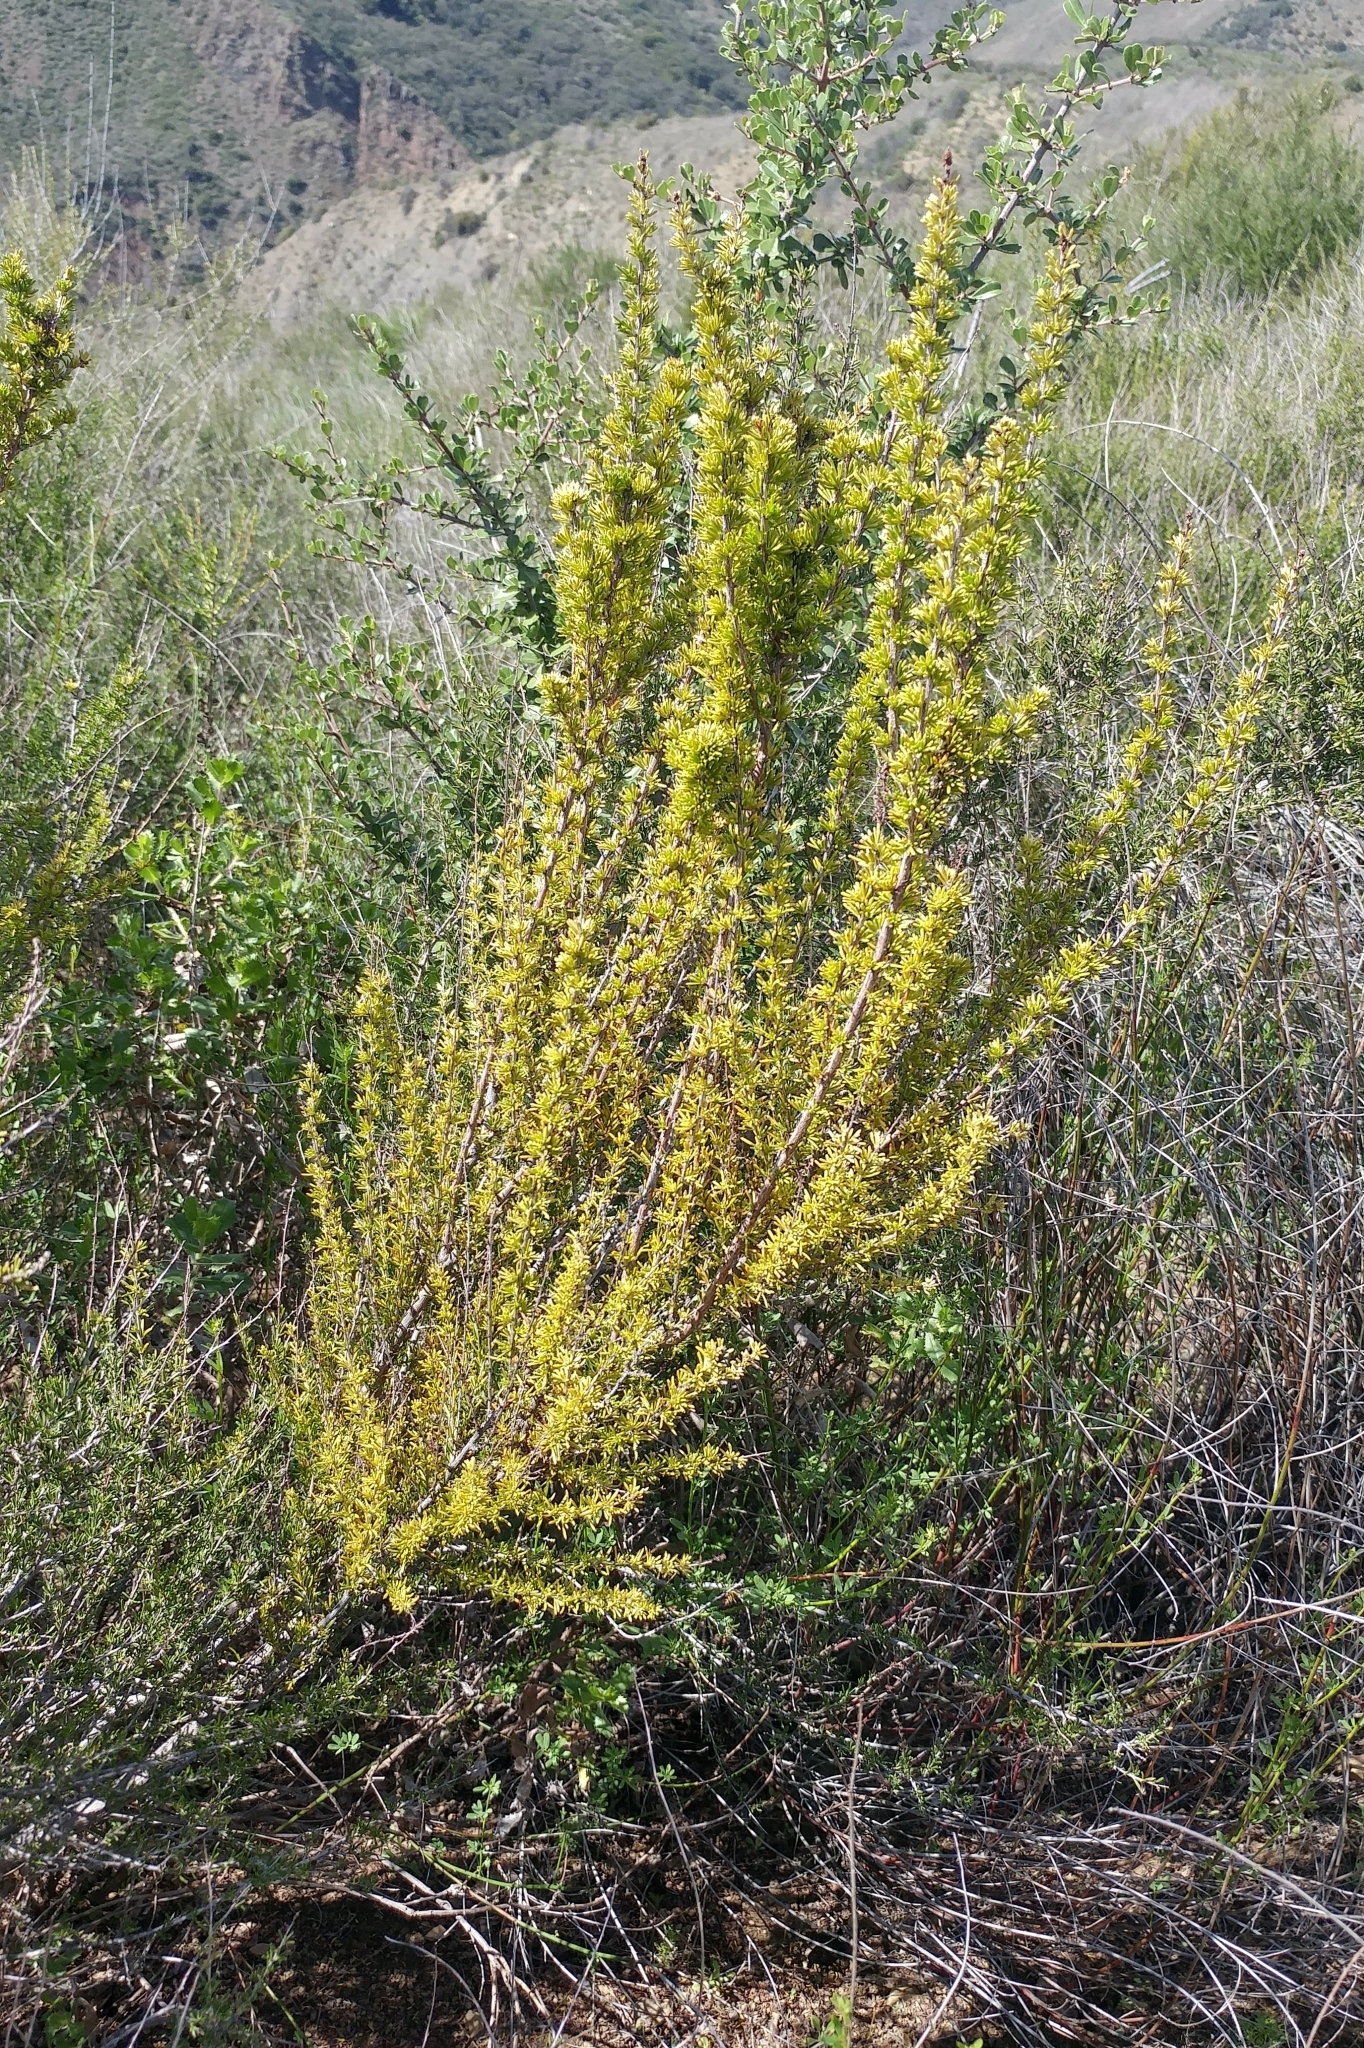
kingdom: Plantae
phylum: Tracheophyta
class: Magnoliopsida
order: Rosales
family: Rosaceae
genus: Adenostoma
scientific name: Adenostoma fasciculatum
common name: Chamise
